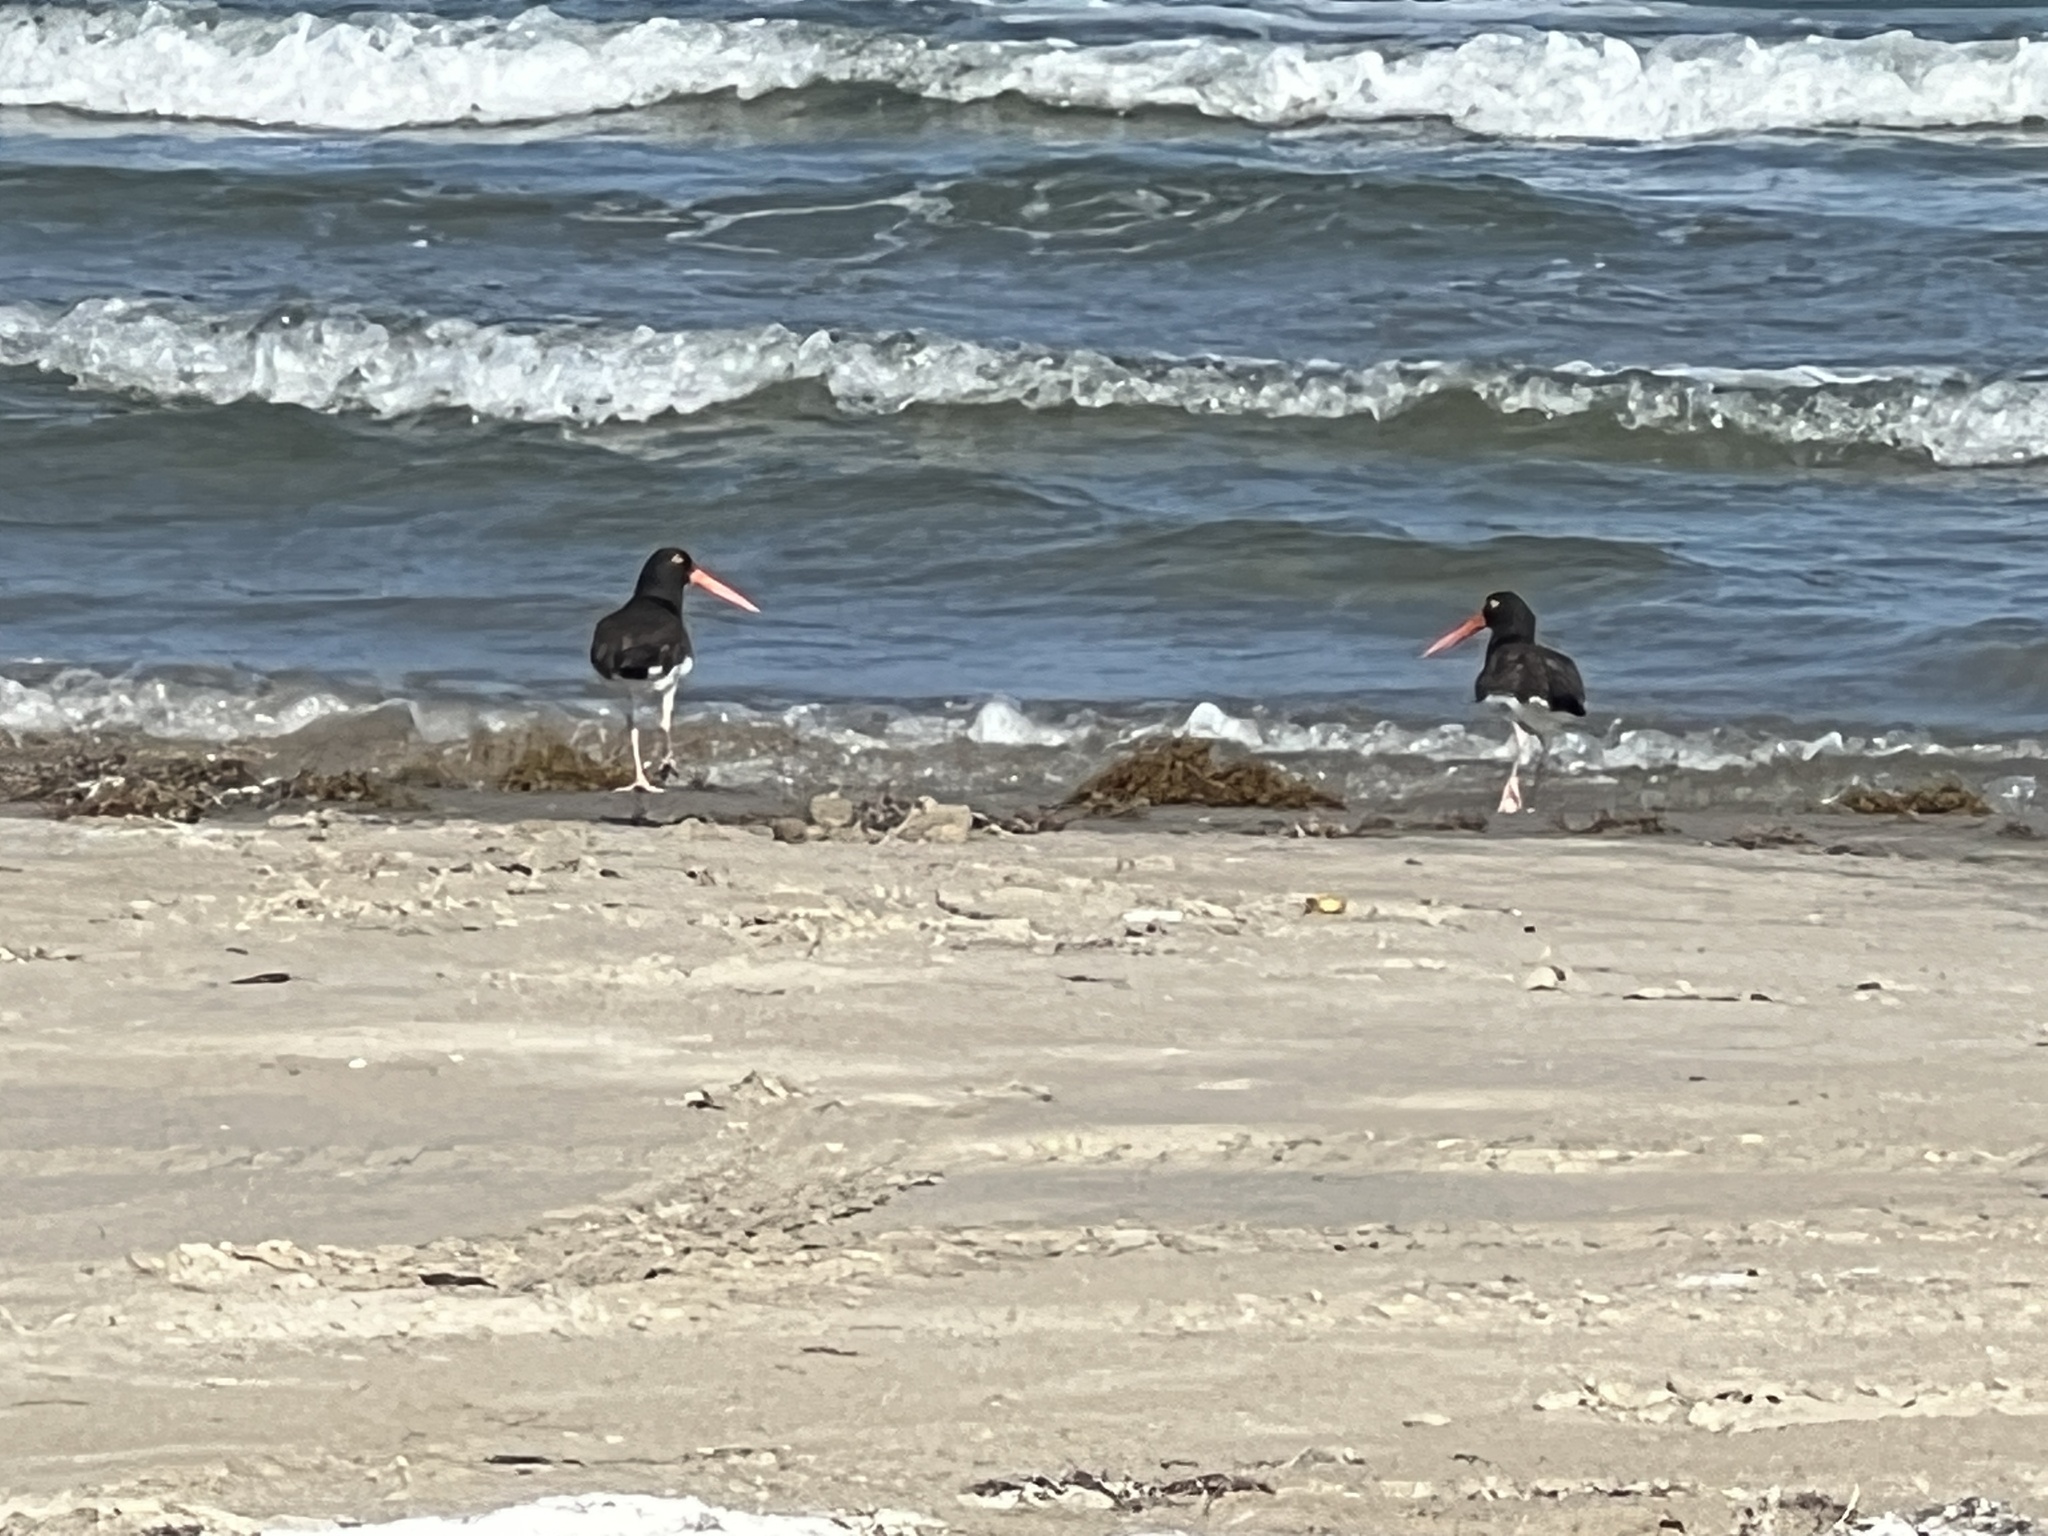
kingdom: Animalia
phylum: Chordata
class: Aves
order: Charadriiformes
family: Haematopodidae
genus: Haematopus
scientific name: Haematopus palliatus
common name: American oystercatcher
